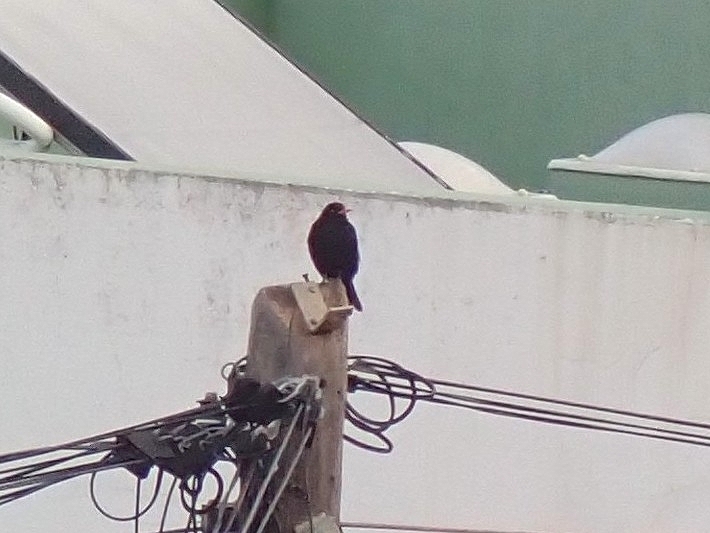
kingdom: Animalia
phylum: Chordata
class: Aves
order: Passeriformes
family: Turdidae
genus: Turdus
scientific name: Turdus merula
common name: Common blackbird
